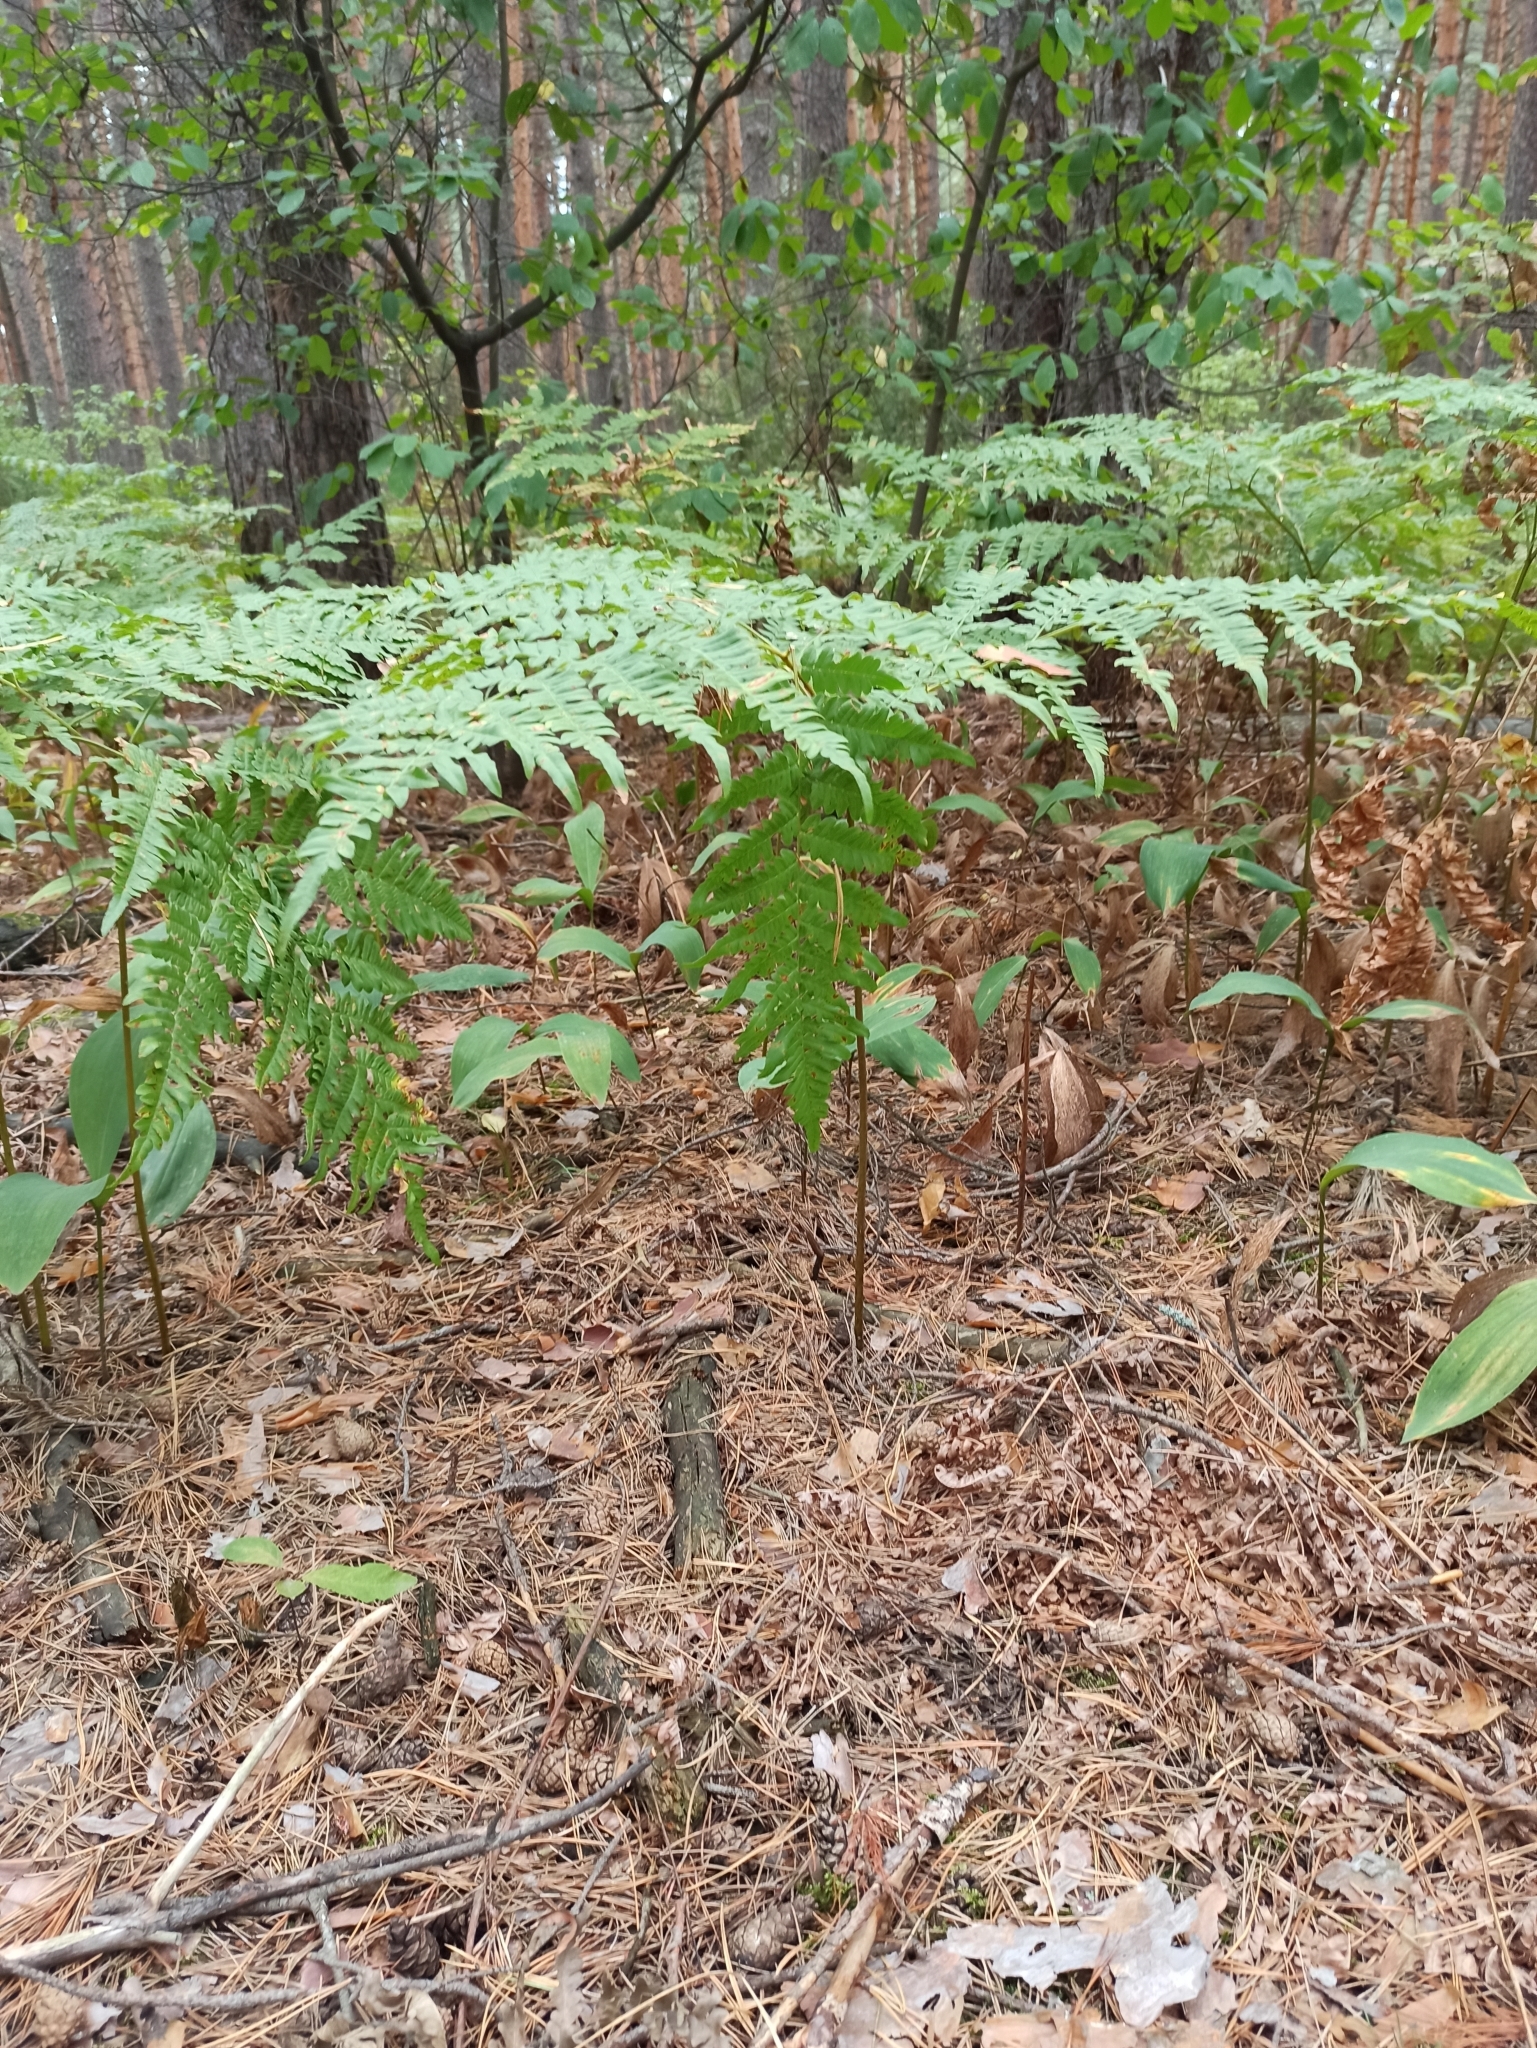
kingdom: Plantae
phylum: Tracheophyta
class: Polypodiopsida
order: Polypodiales
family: Dennstaedtiaceae
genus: Pteridium
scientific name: Pteridium aquilinum
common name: Bracken
